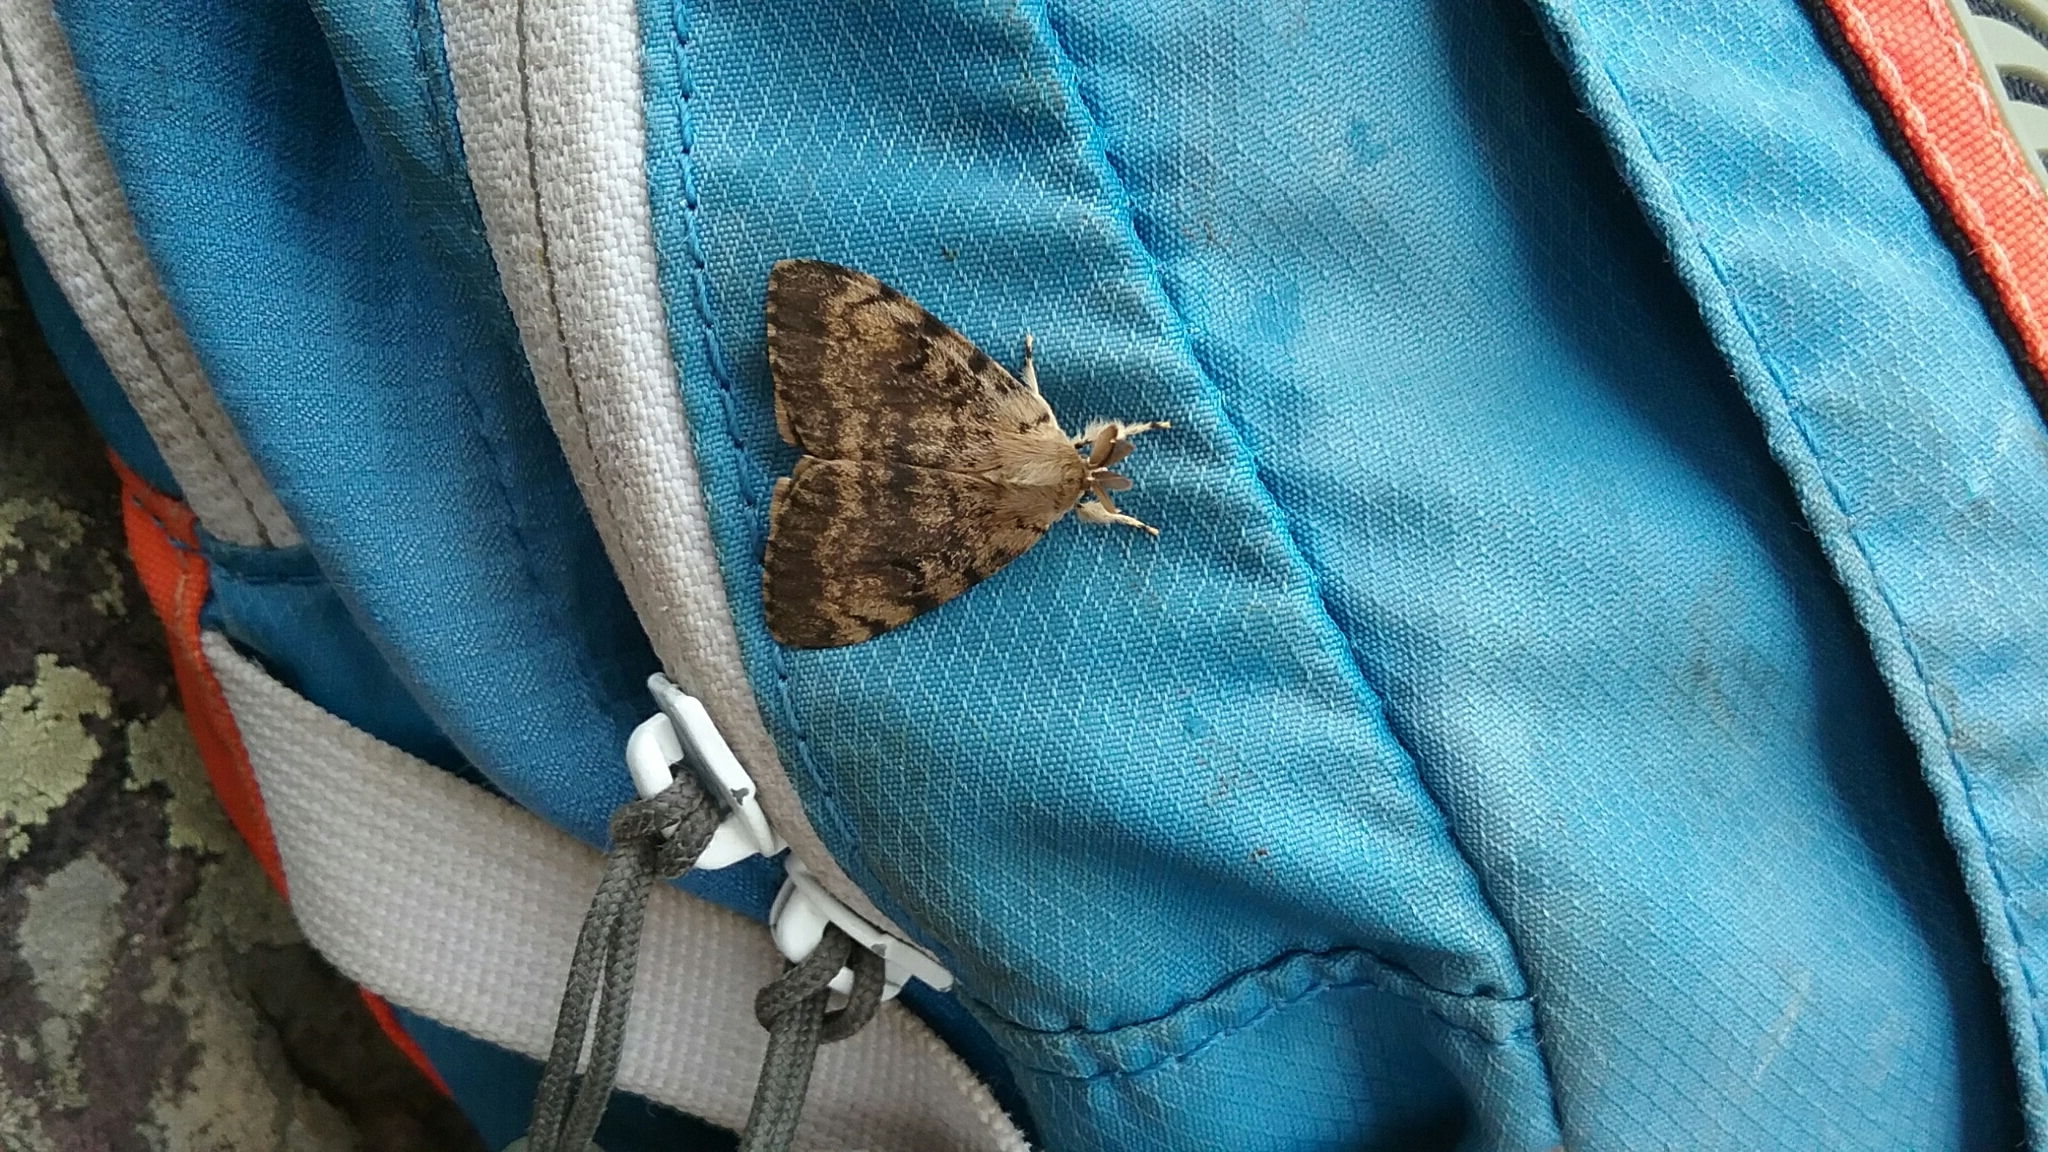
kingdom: Animalia
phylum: Arthropoda
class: Insecta
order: Lepidoptera
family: Erebidae
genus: Lymantria
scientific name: Lymantria dispar
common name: Gypsy moth
